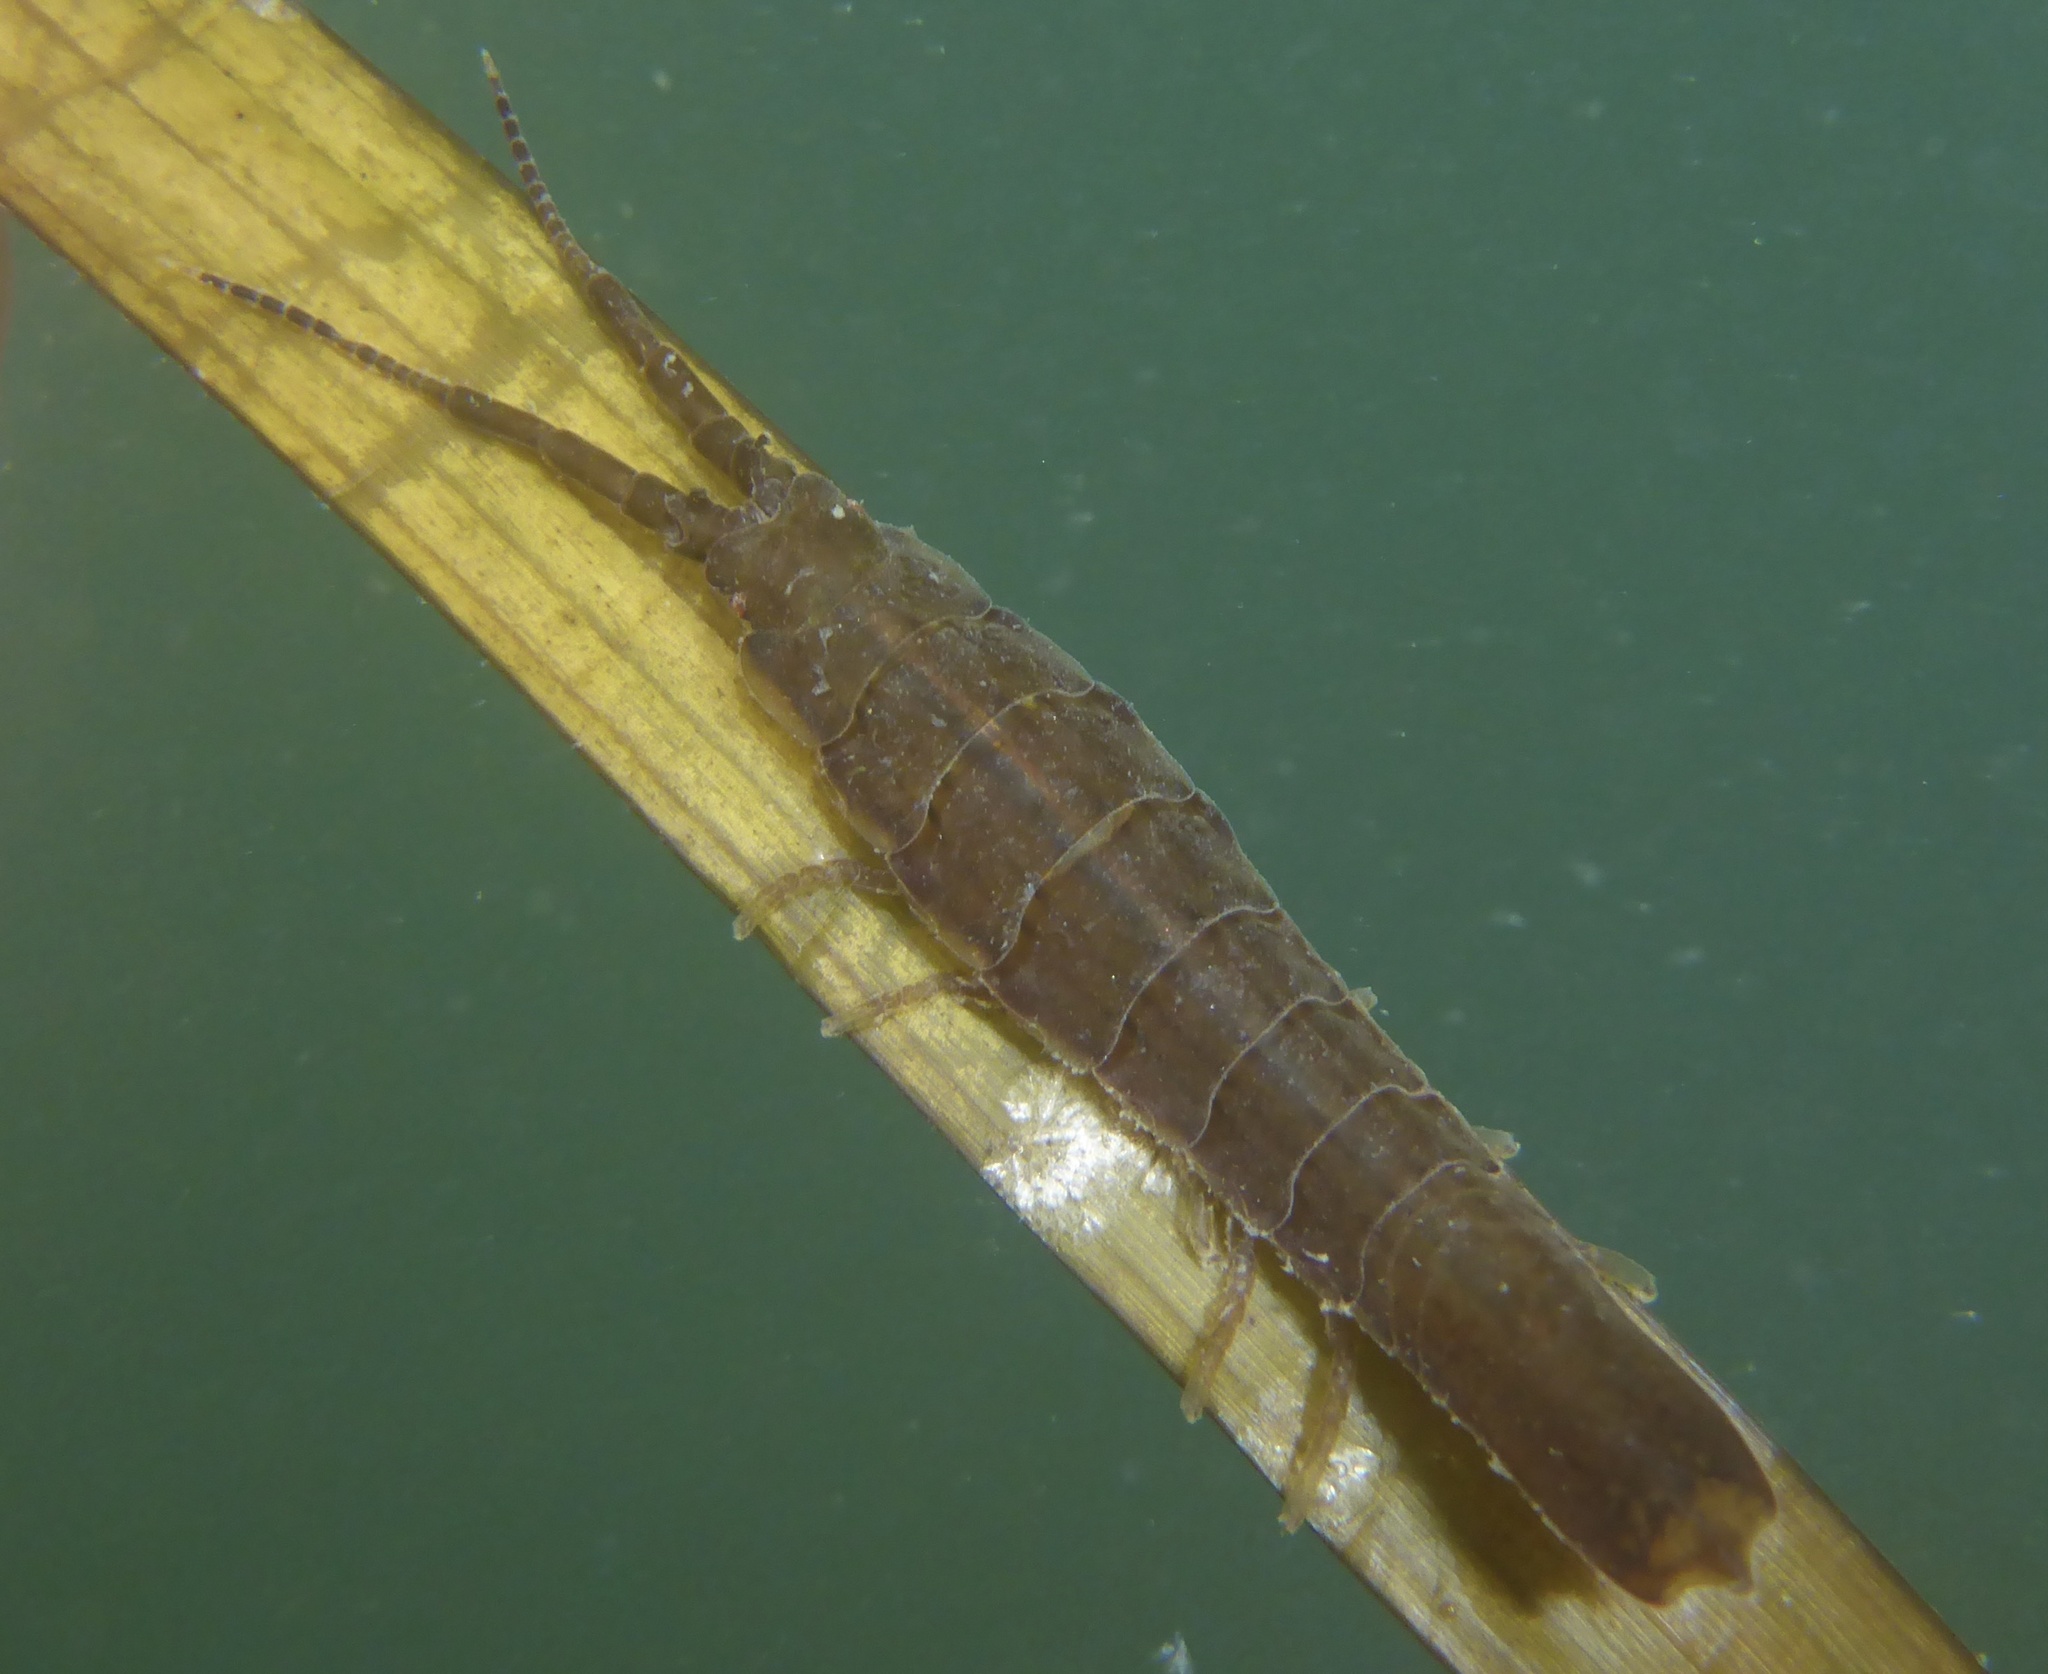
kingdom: Animalia
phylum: Arthropoda
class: Malacostraca
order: Isopoda
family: Idoteidae
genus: Idotea
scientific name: Idotea fewkesi
